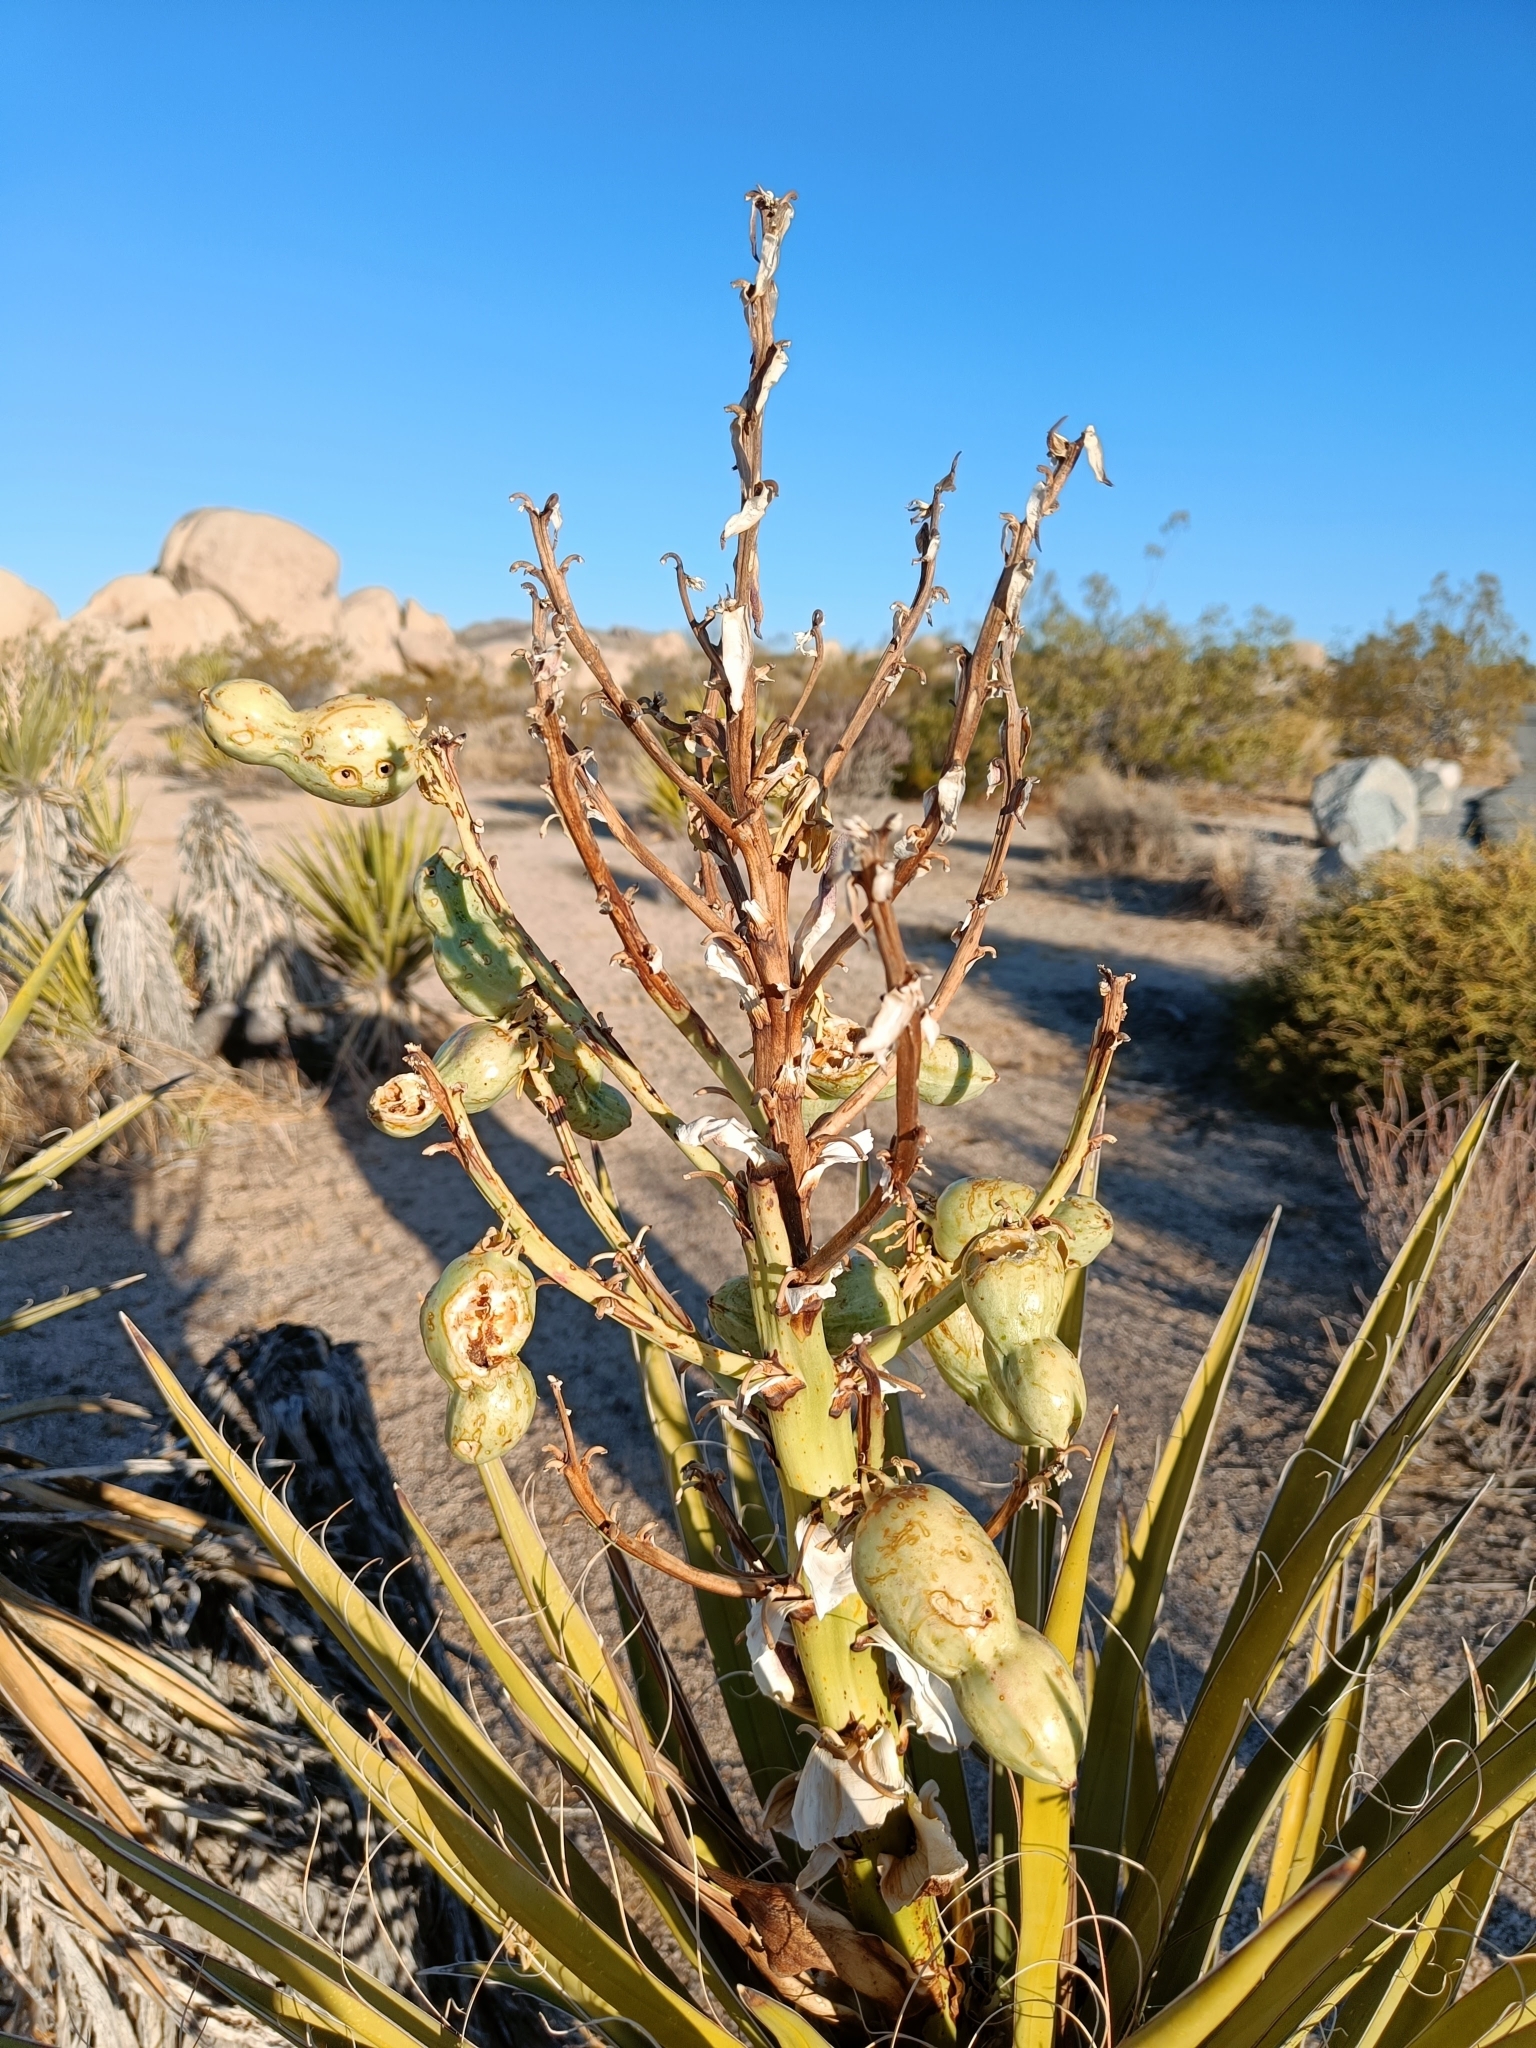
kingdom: Plantae
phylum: Tracheophyta
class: Liliopsida
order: Asparagales
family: Asparagaceae
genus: Yucca
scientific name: Yucca schidigera
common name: Mojave yucca
